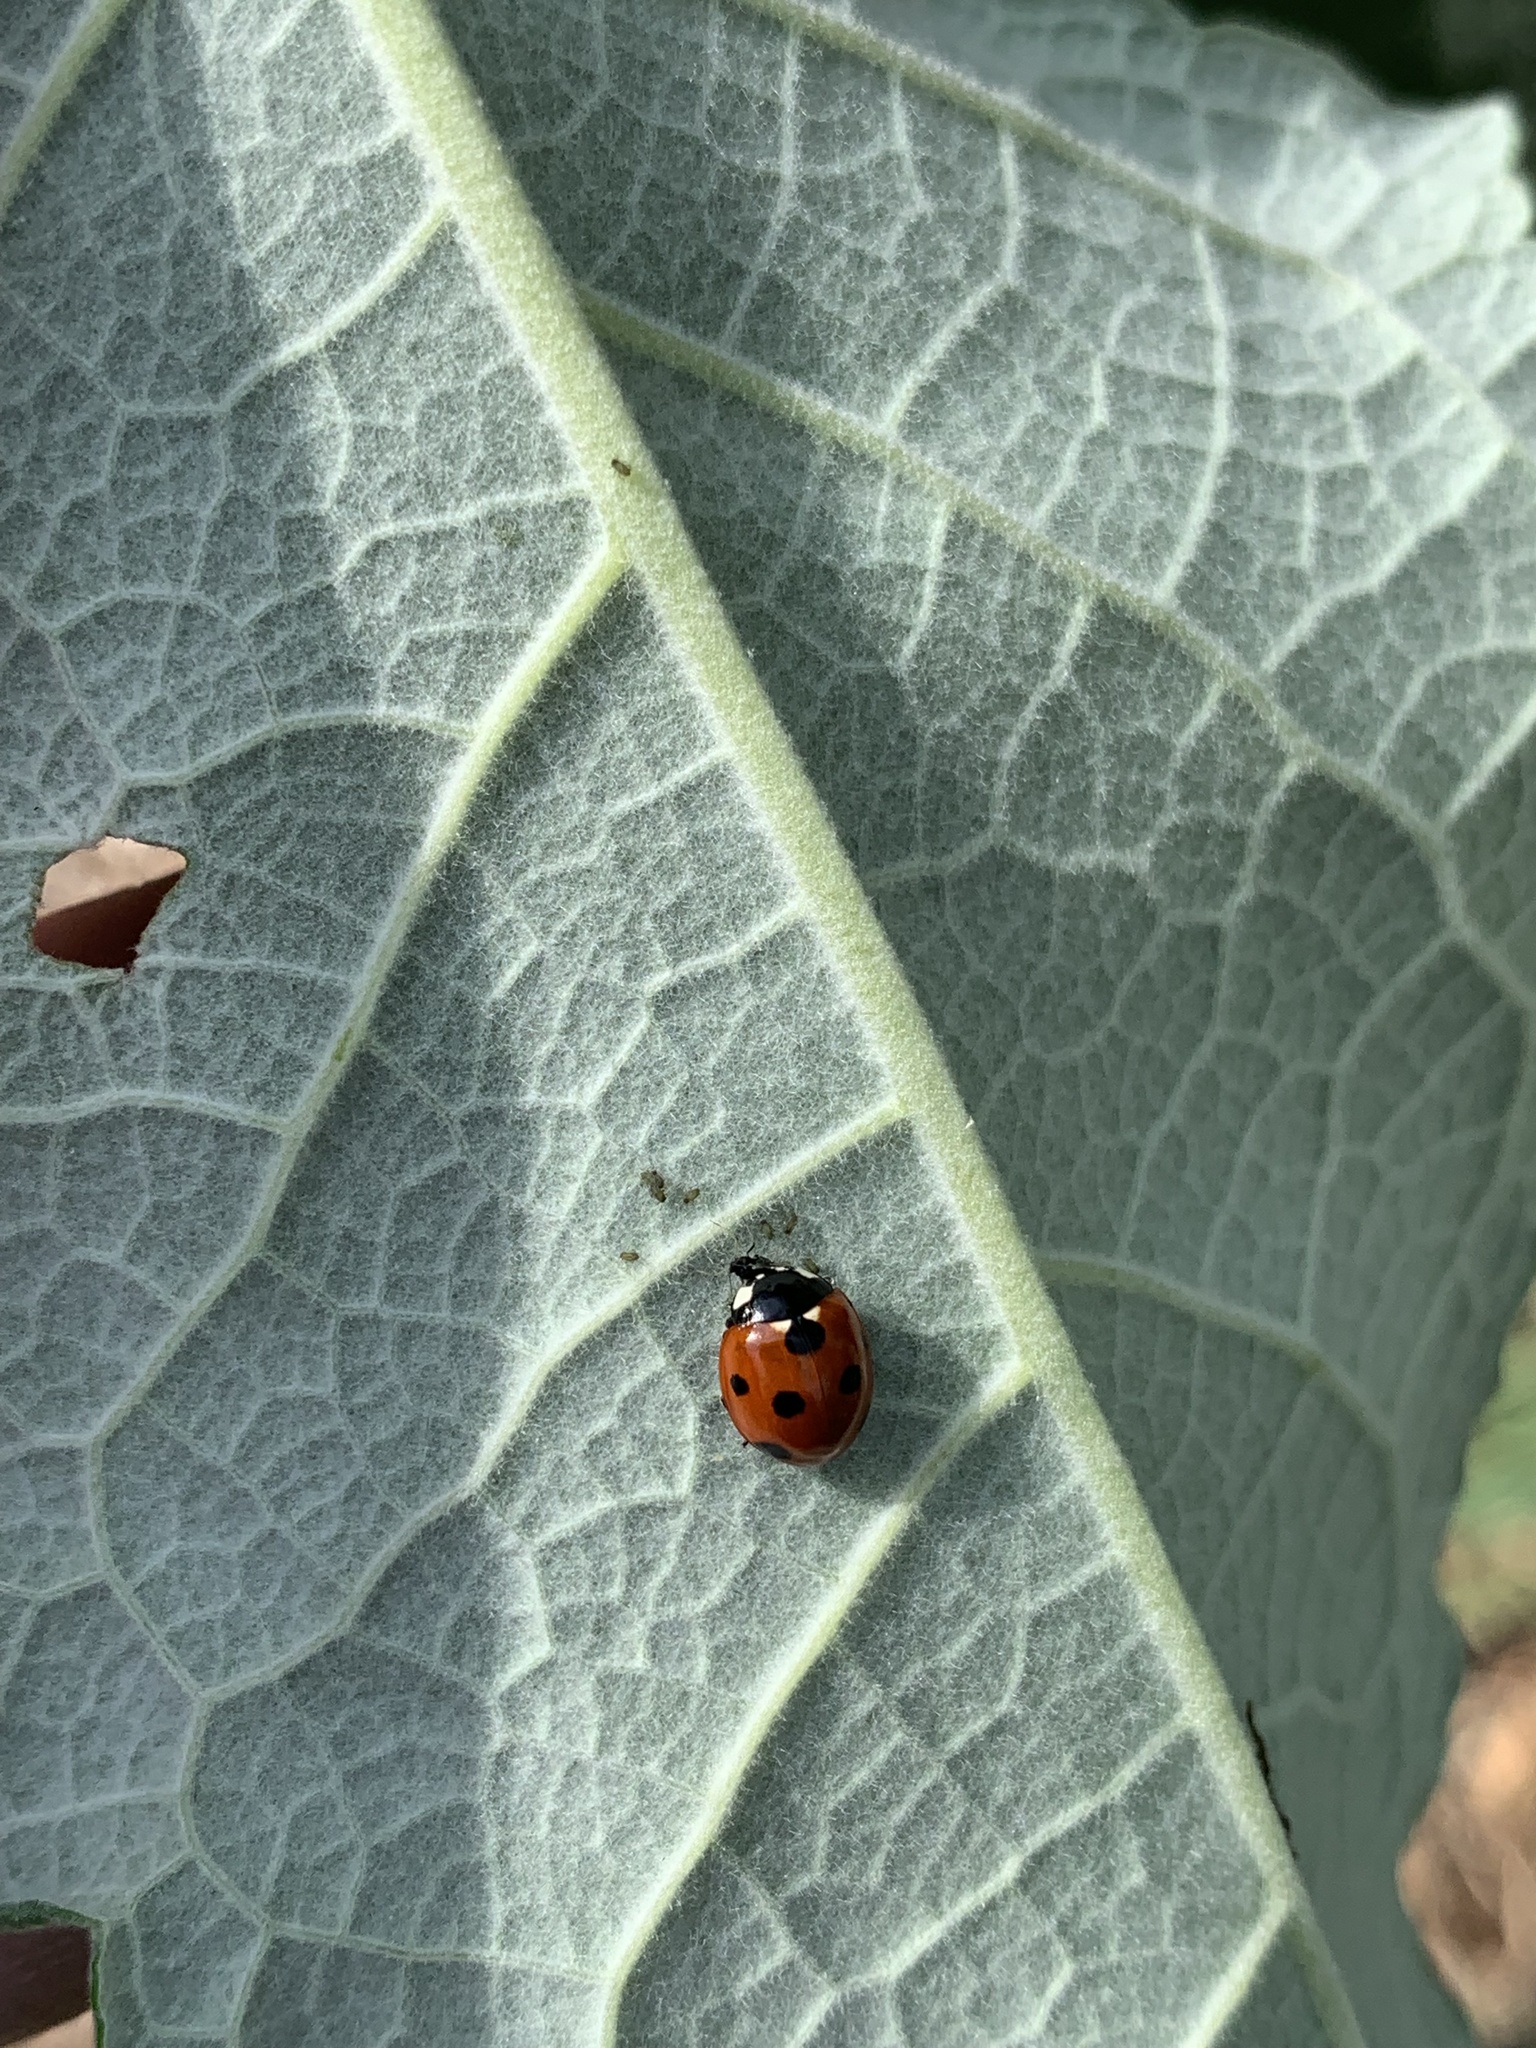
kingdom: Animalia
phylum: Arthropoda
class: Insecta
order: Coleoptera
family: Coccinellidae
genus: Coccinella
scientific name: Coccinella septempunctata
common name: Sevenspotted lady beetle
